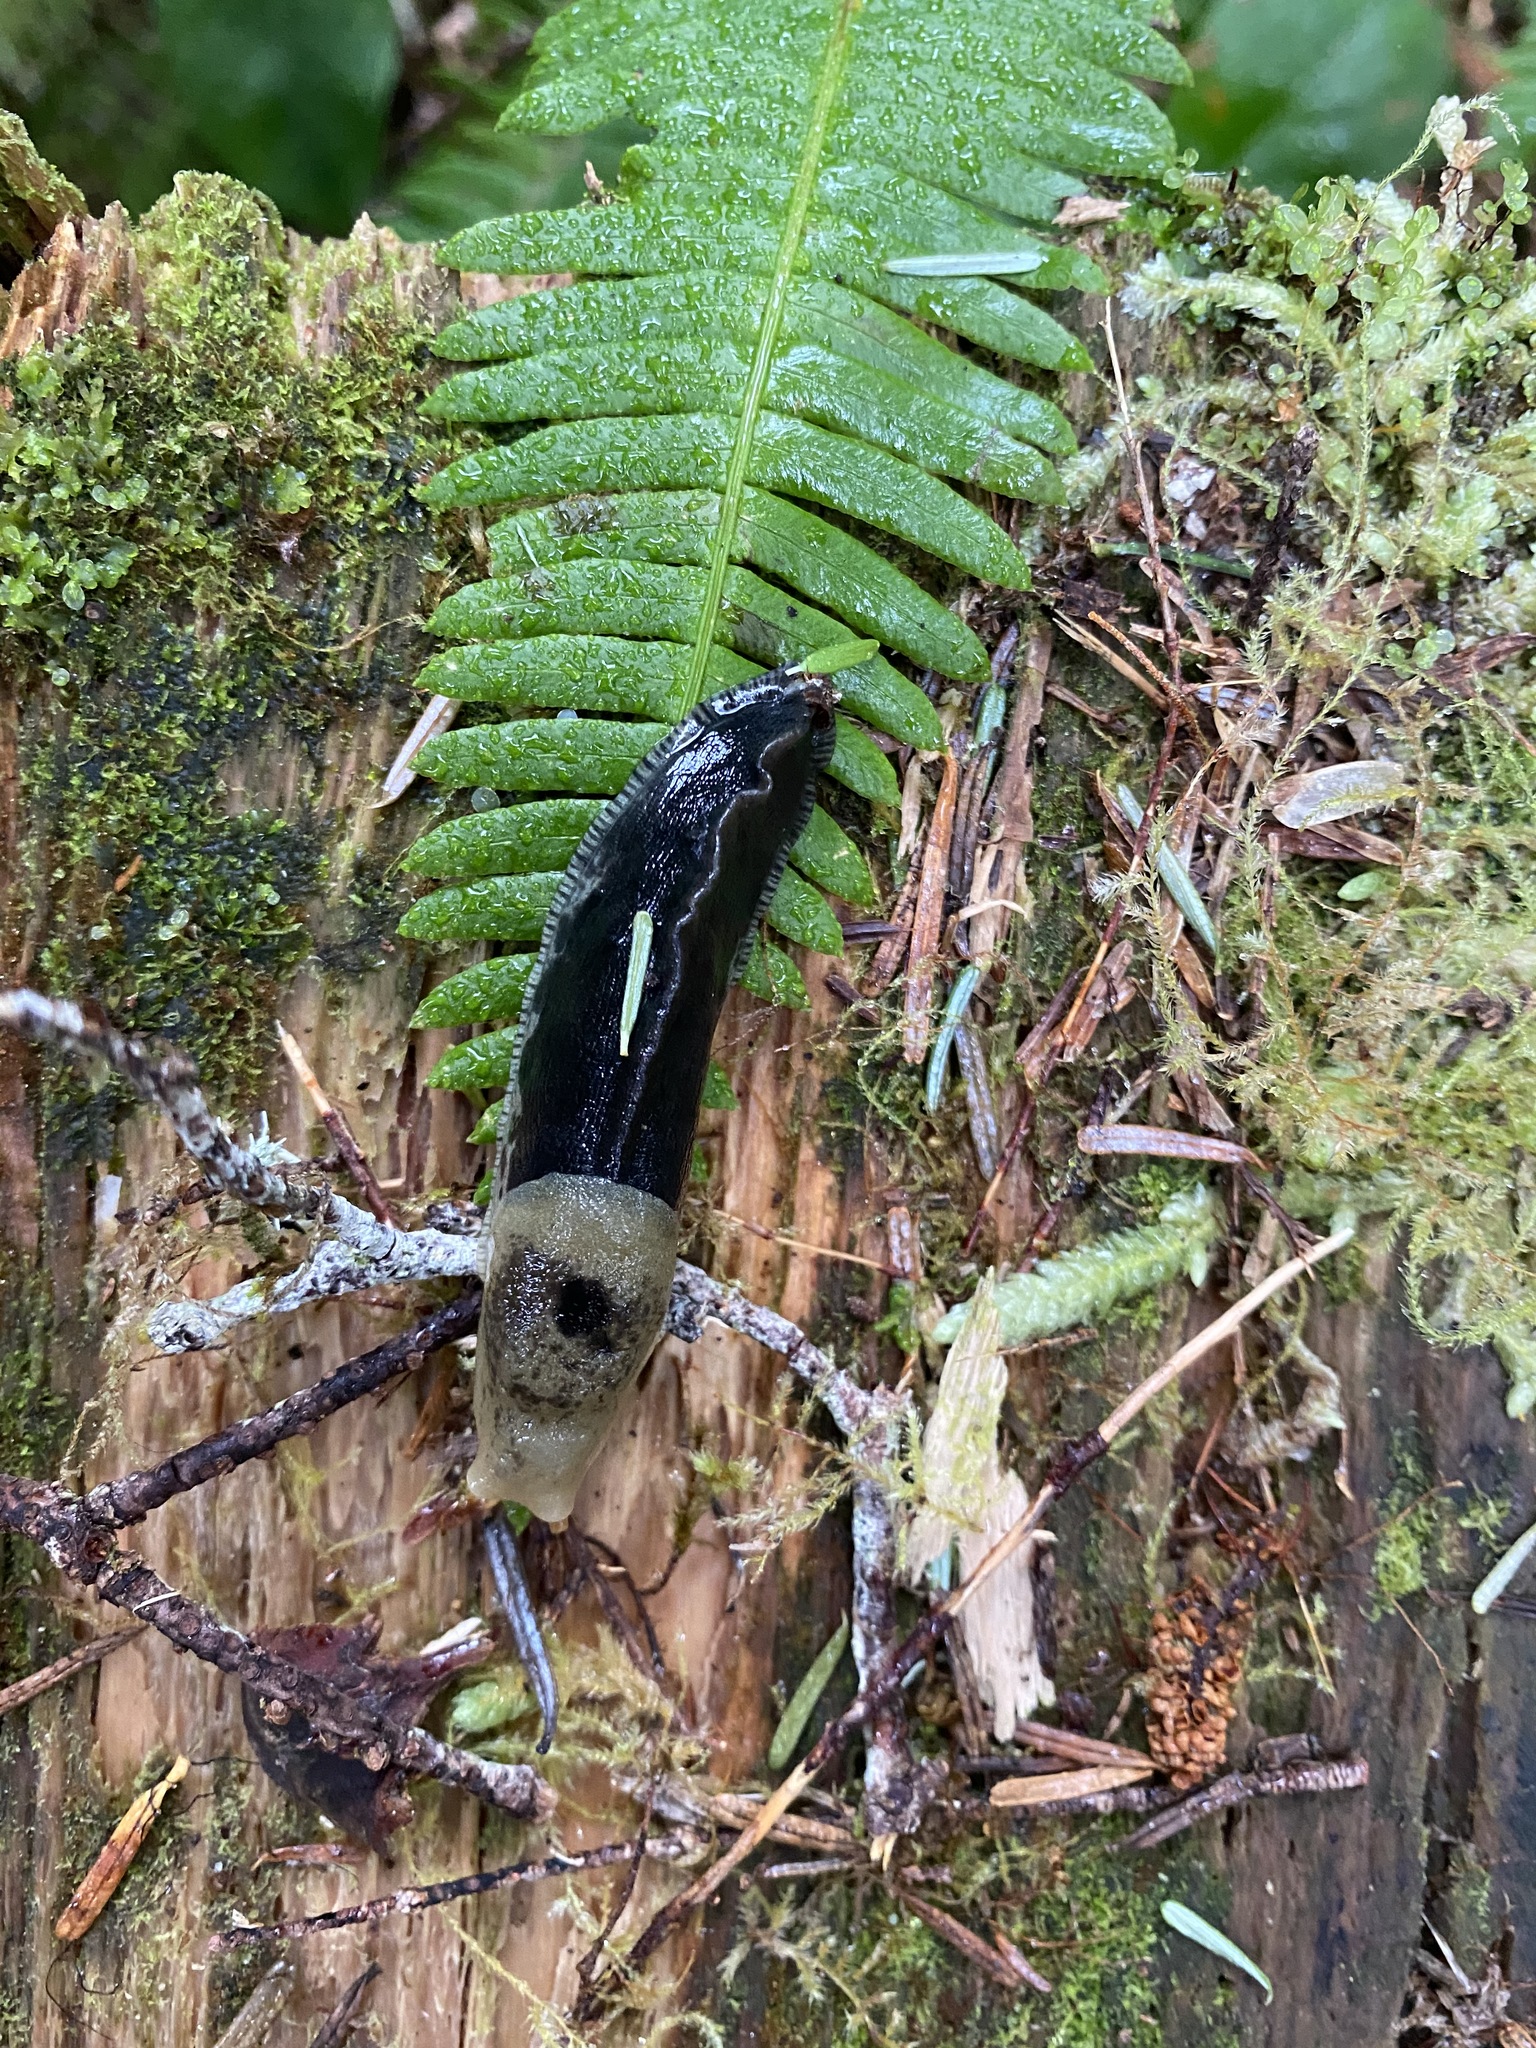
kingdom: Animalia
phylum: Mollusca
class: Gastropoda
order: Stylommatophora
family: Ariolimacidae
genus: Ariolimax
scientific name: Ariolimax columbianus
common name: Pacific banana slug
